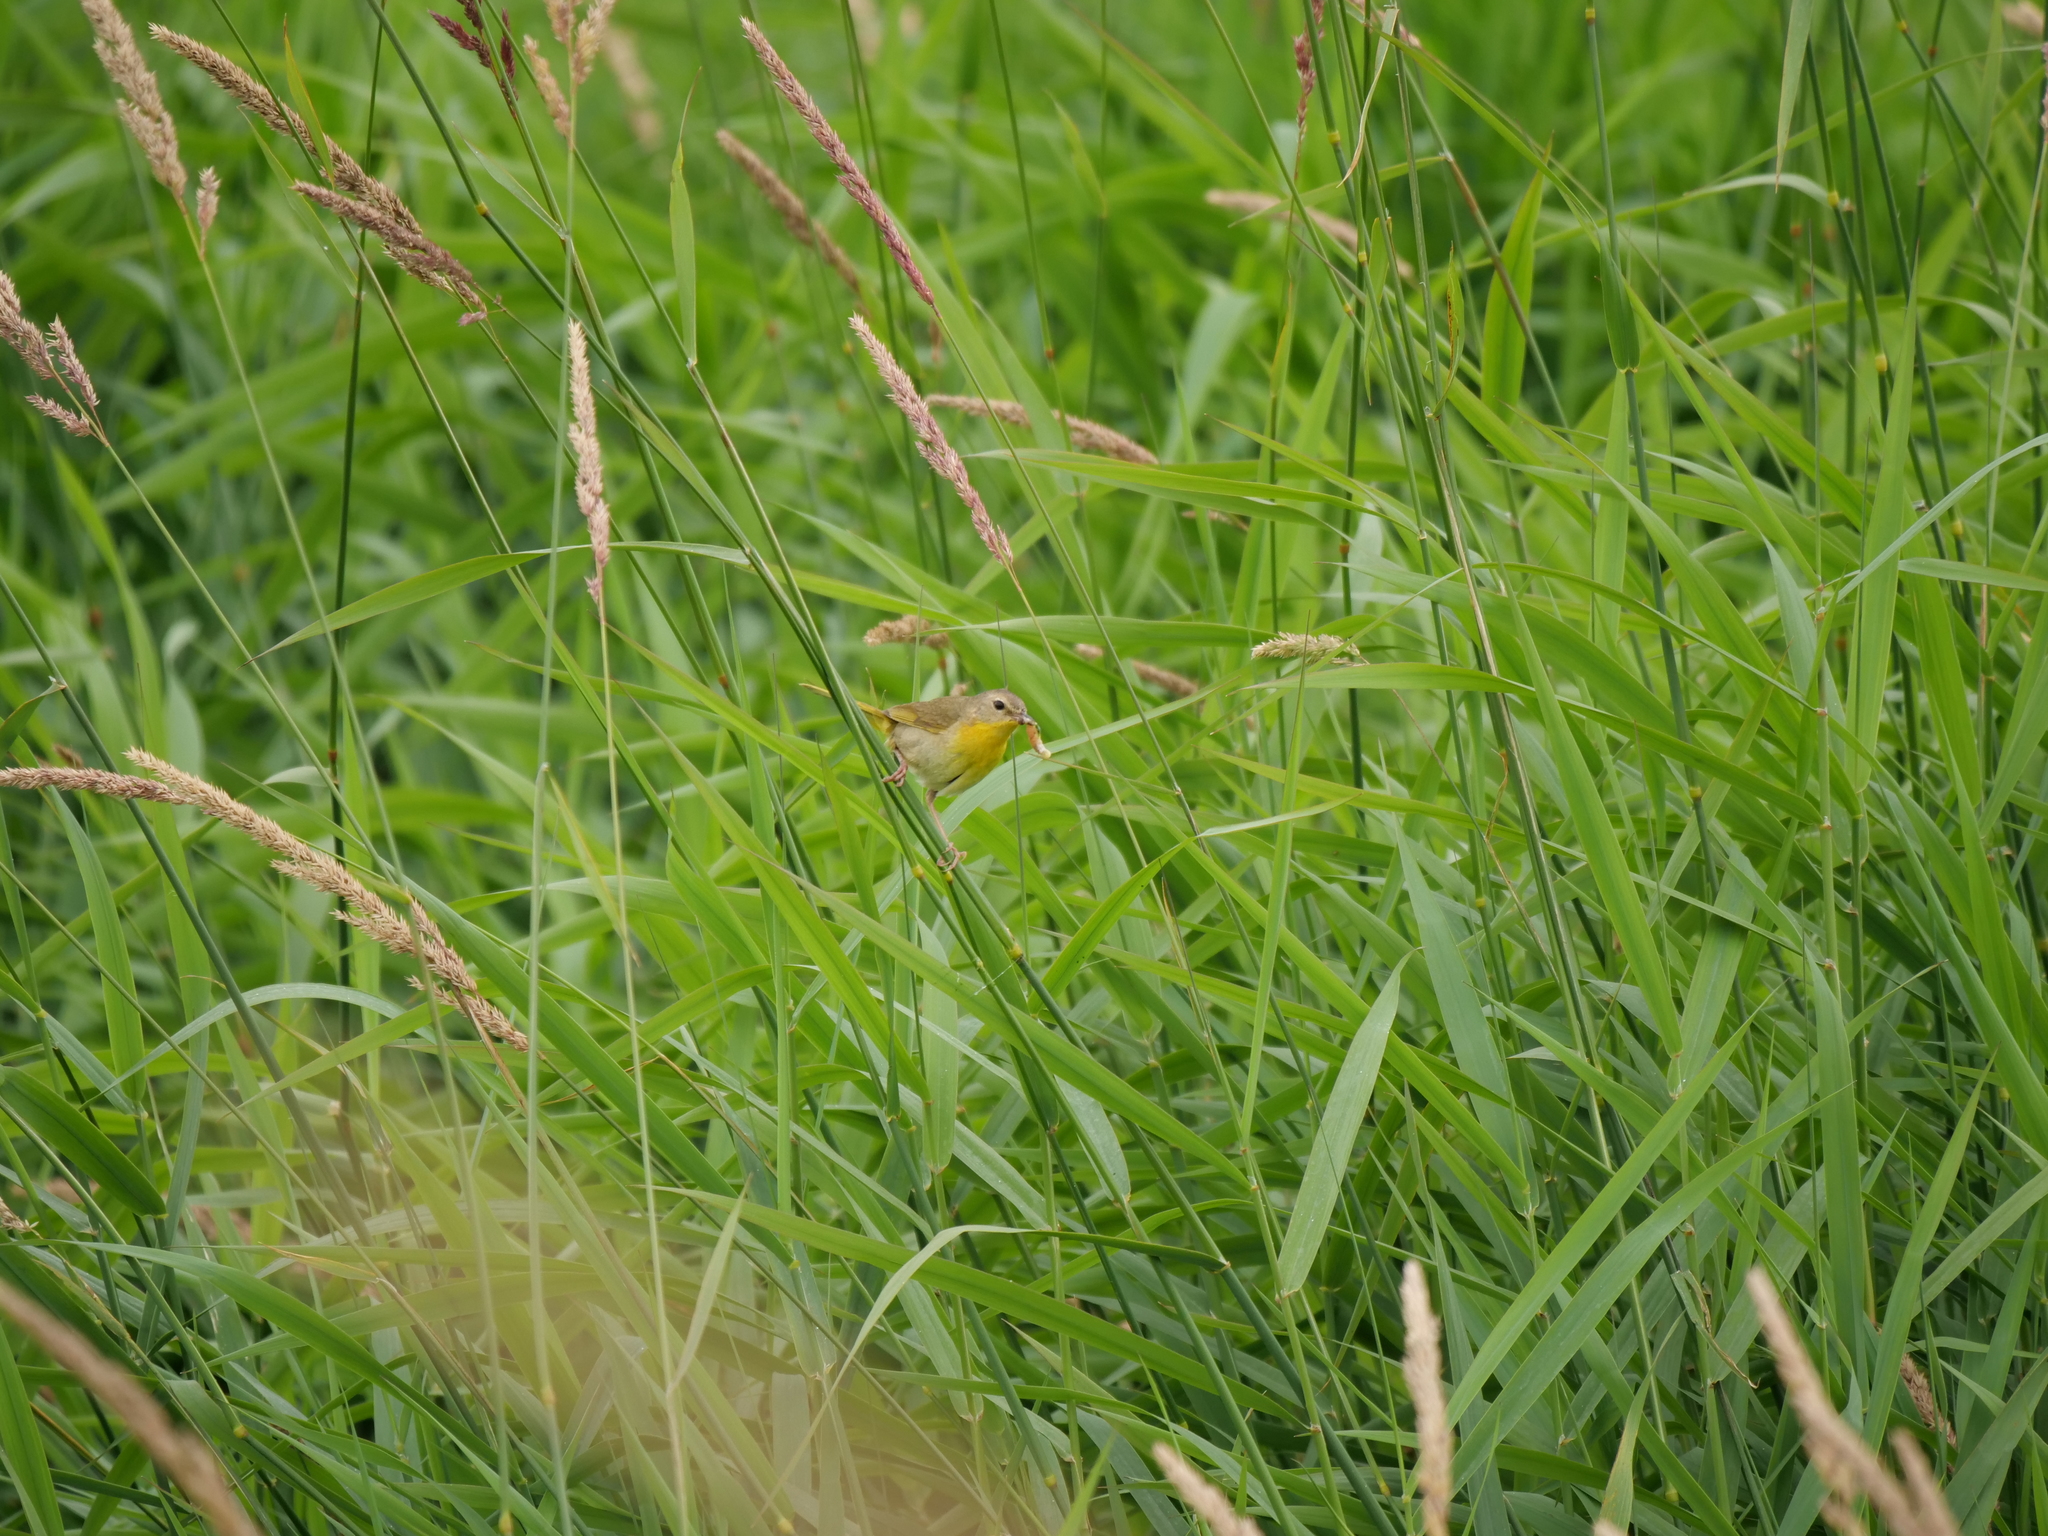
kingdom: Animalia
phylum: Chordata
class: Aves
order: Passeriformes
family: Parulidae
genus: Geothlypis
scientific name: Geothlypis trichas
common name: Common yellowthroat
